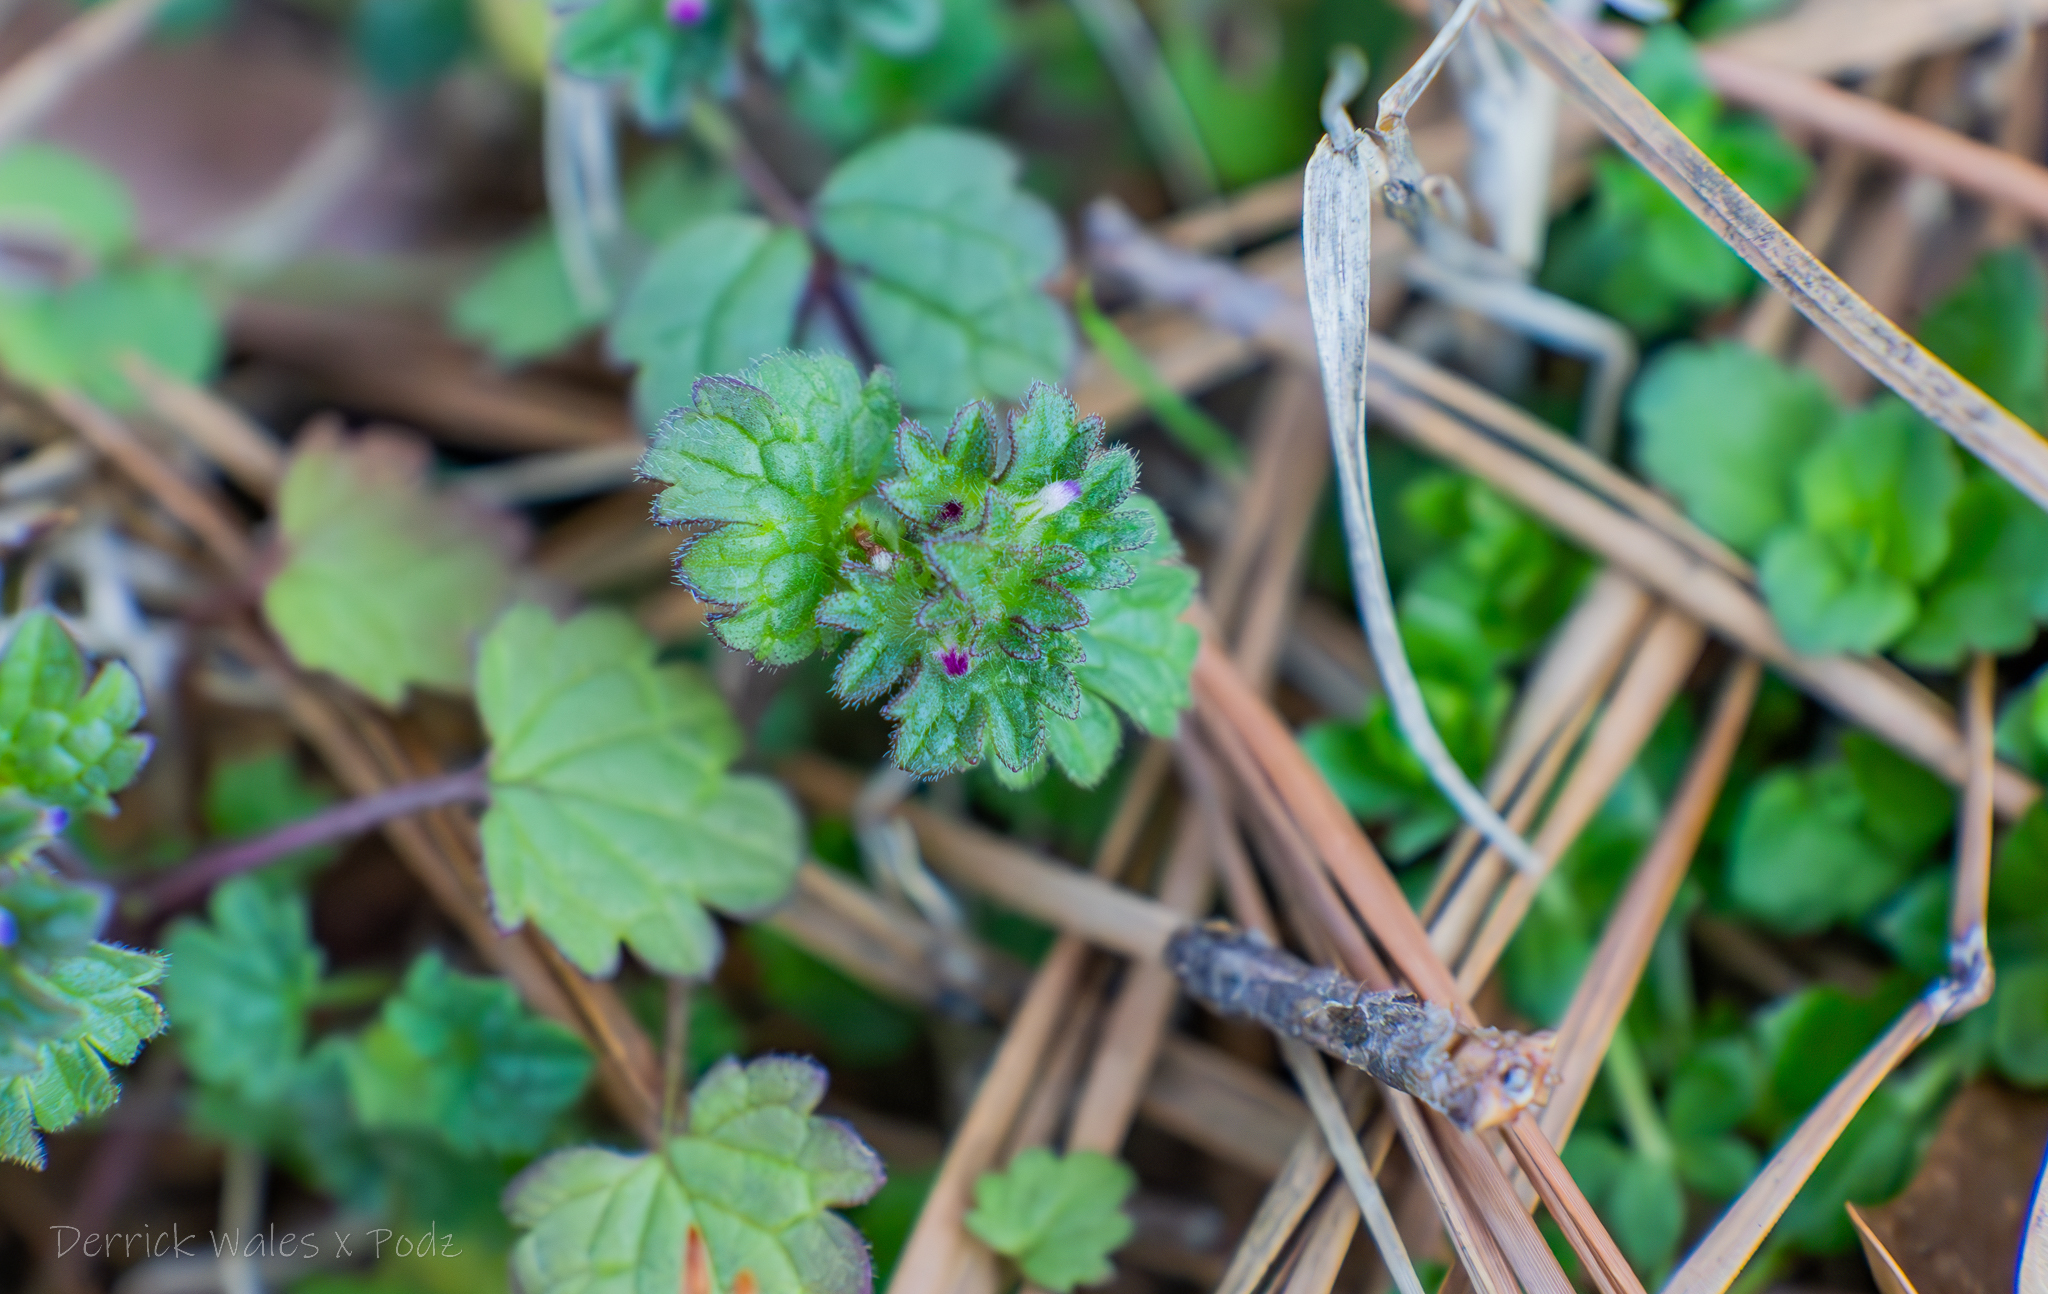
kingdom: Plantae
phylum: Tracheophyta
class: Magnoliopsida
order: Lamiales
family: Lamiaceae
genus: Lamium
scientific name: Lamium amplexicaule
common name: Henbit dead-nettle
